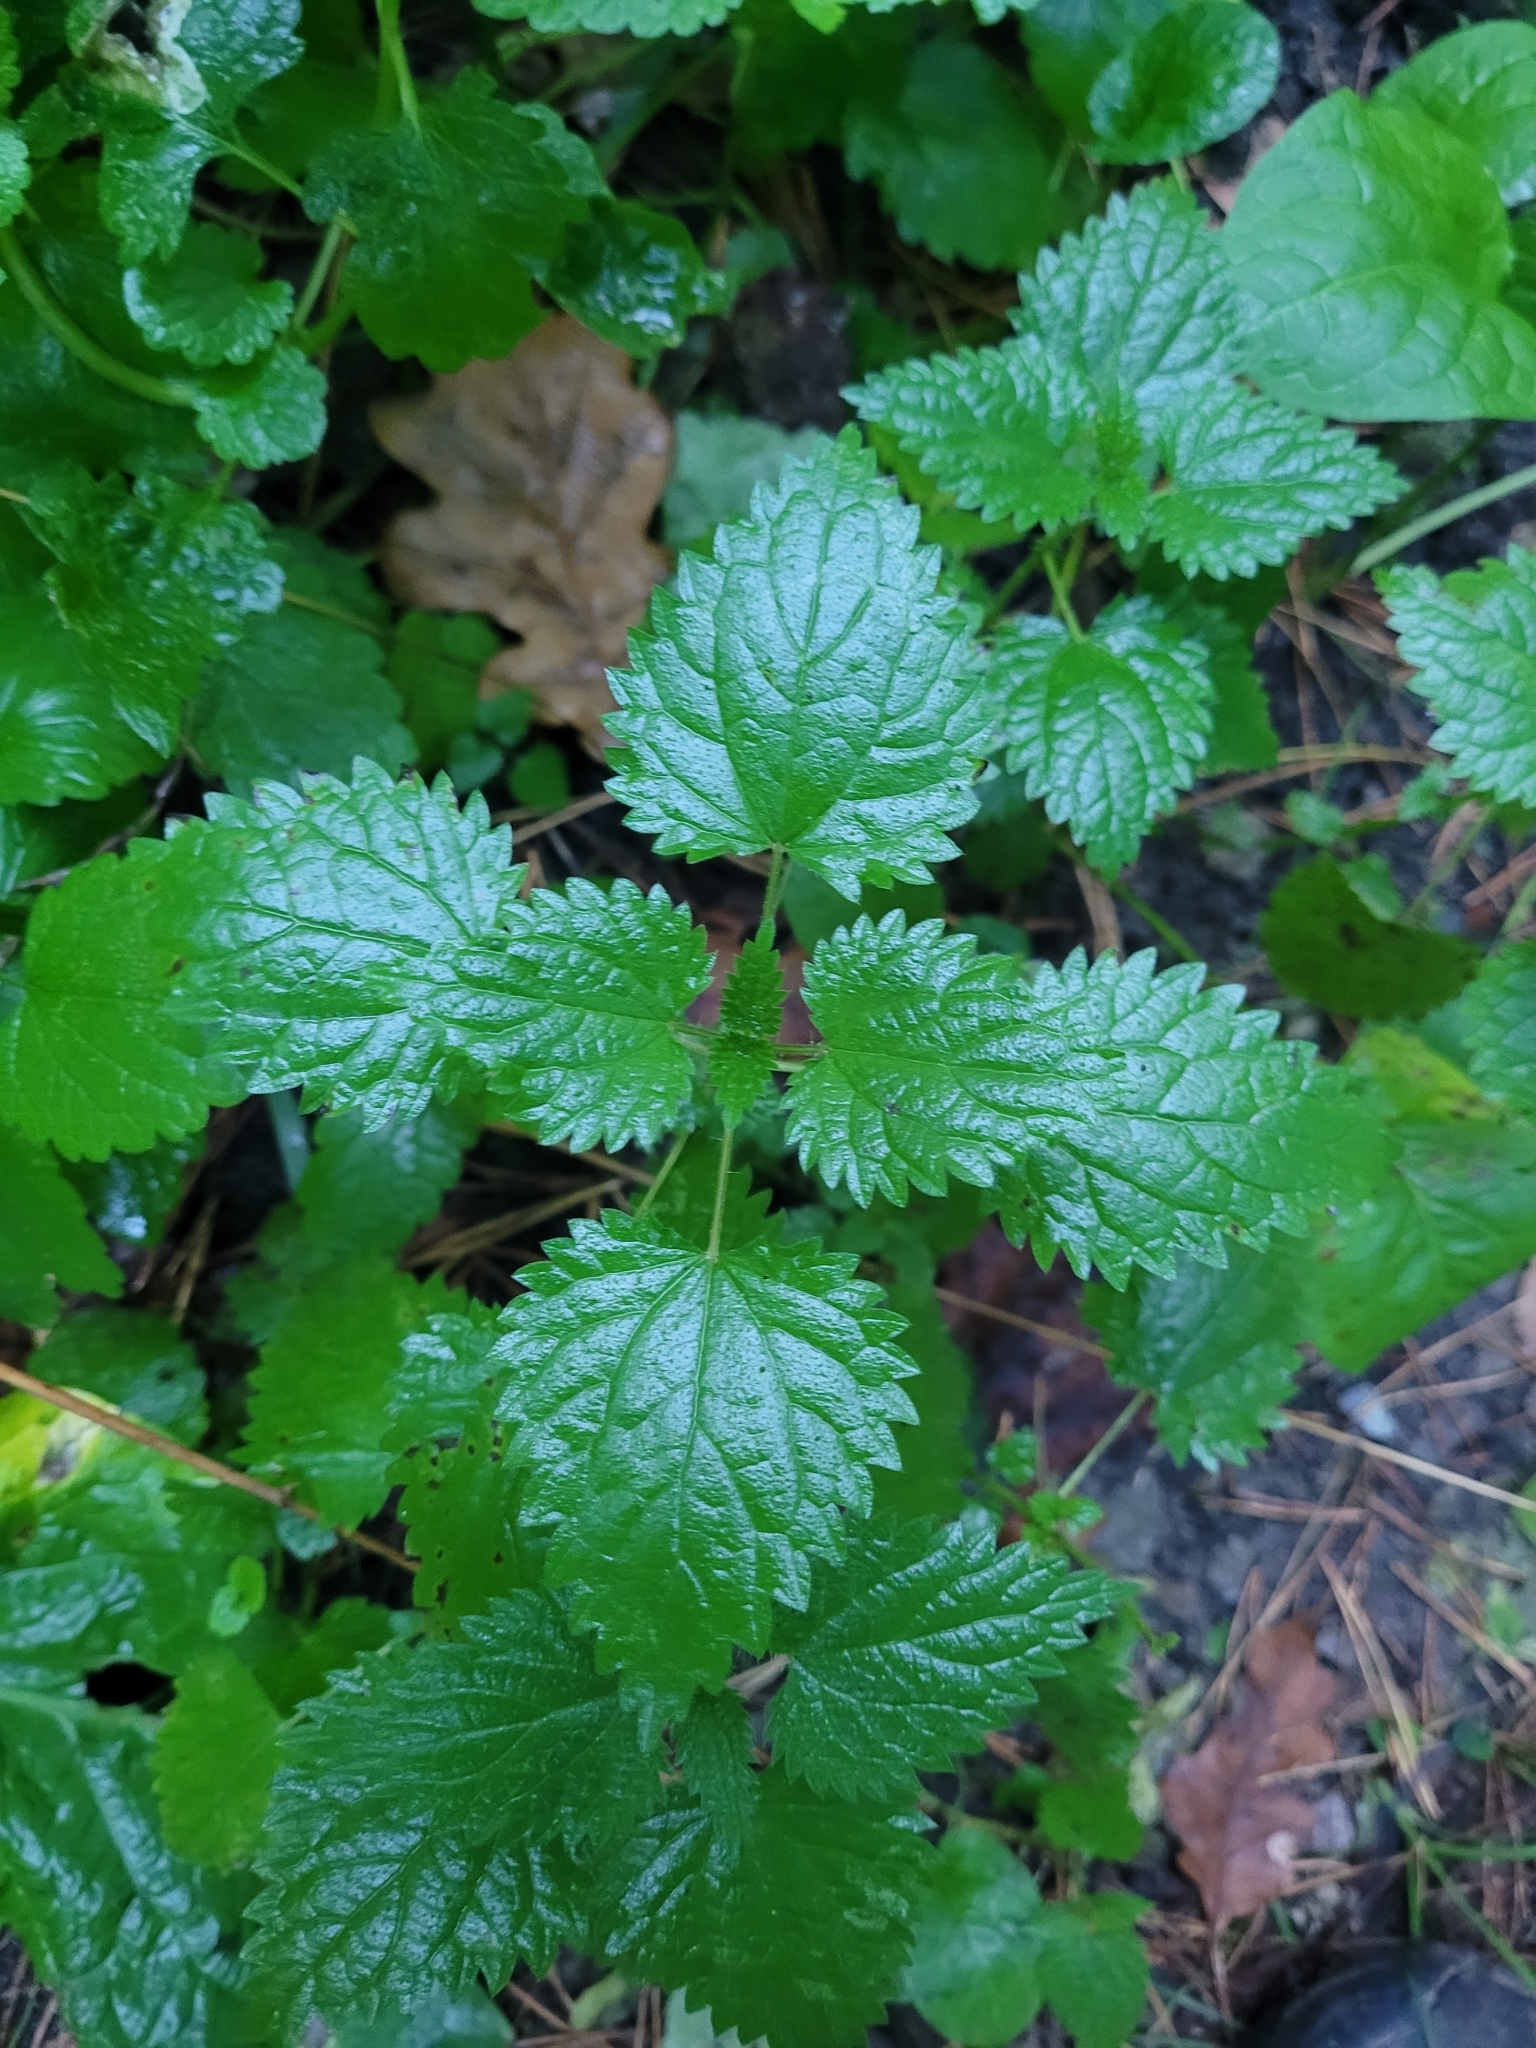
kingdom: Plantae
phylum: Tracheophyta
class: Magnoliopsida
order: Rosales
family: Urticaceae
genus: Urtica
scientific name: Urtica dioica
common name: Common nettle
